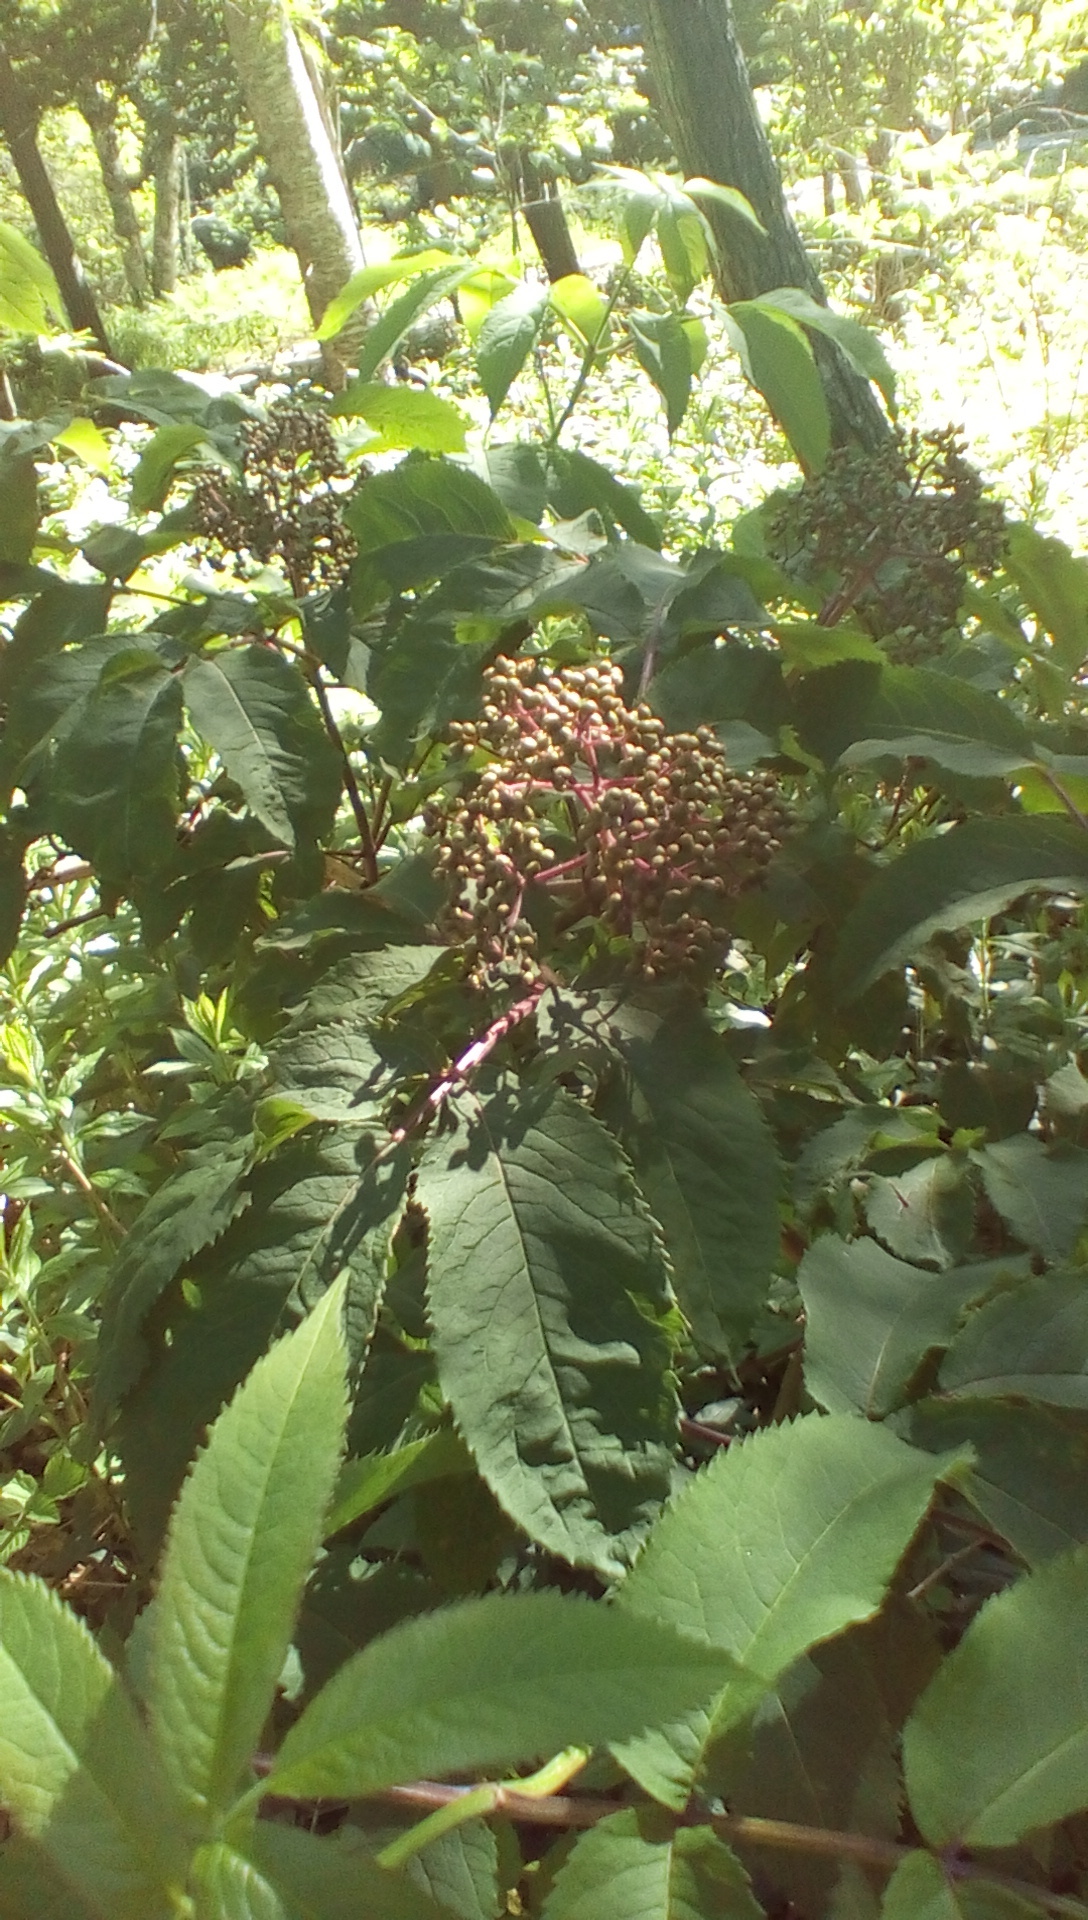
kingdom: Plantae
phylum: Tracheophyta
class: Magnoliopsida
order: Dipsacales
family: Viburnaceae
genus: Sambucus
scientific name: Sambucus racemosa
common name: Red-berried elder
